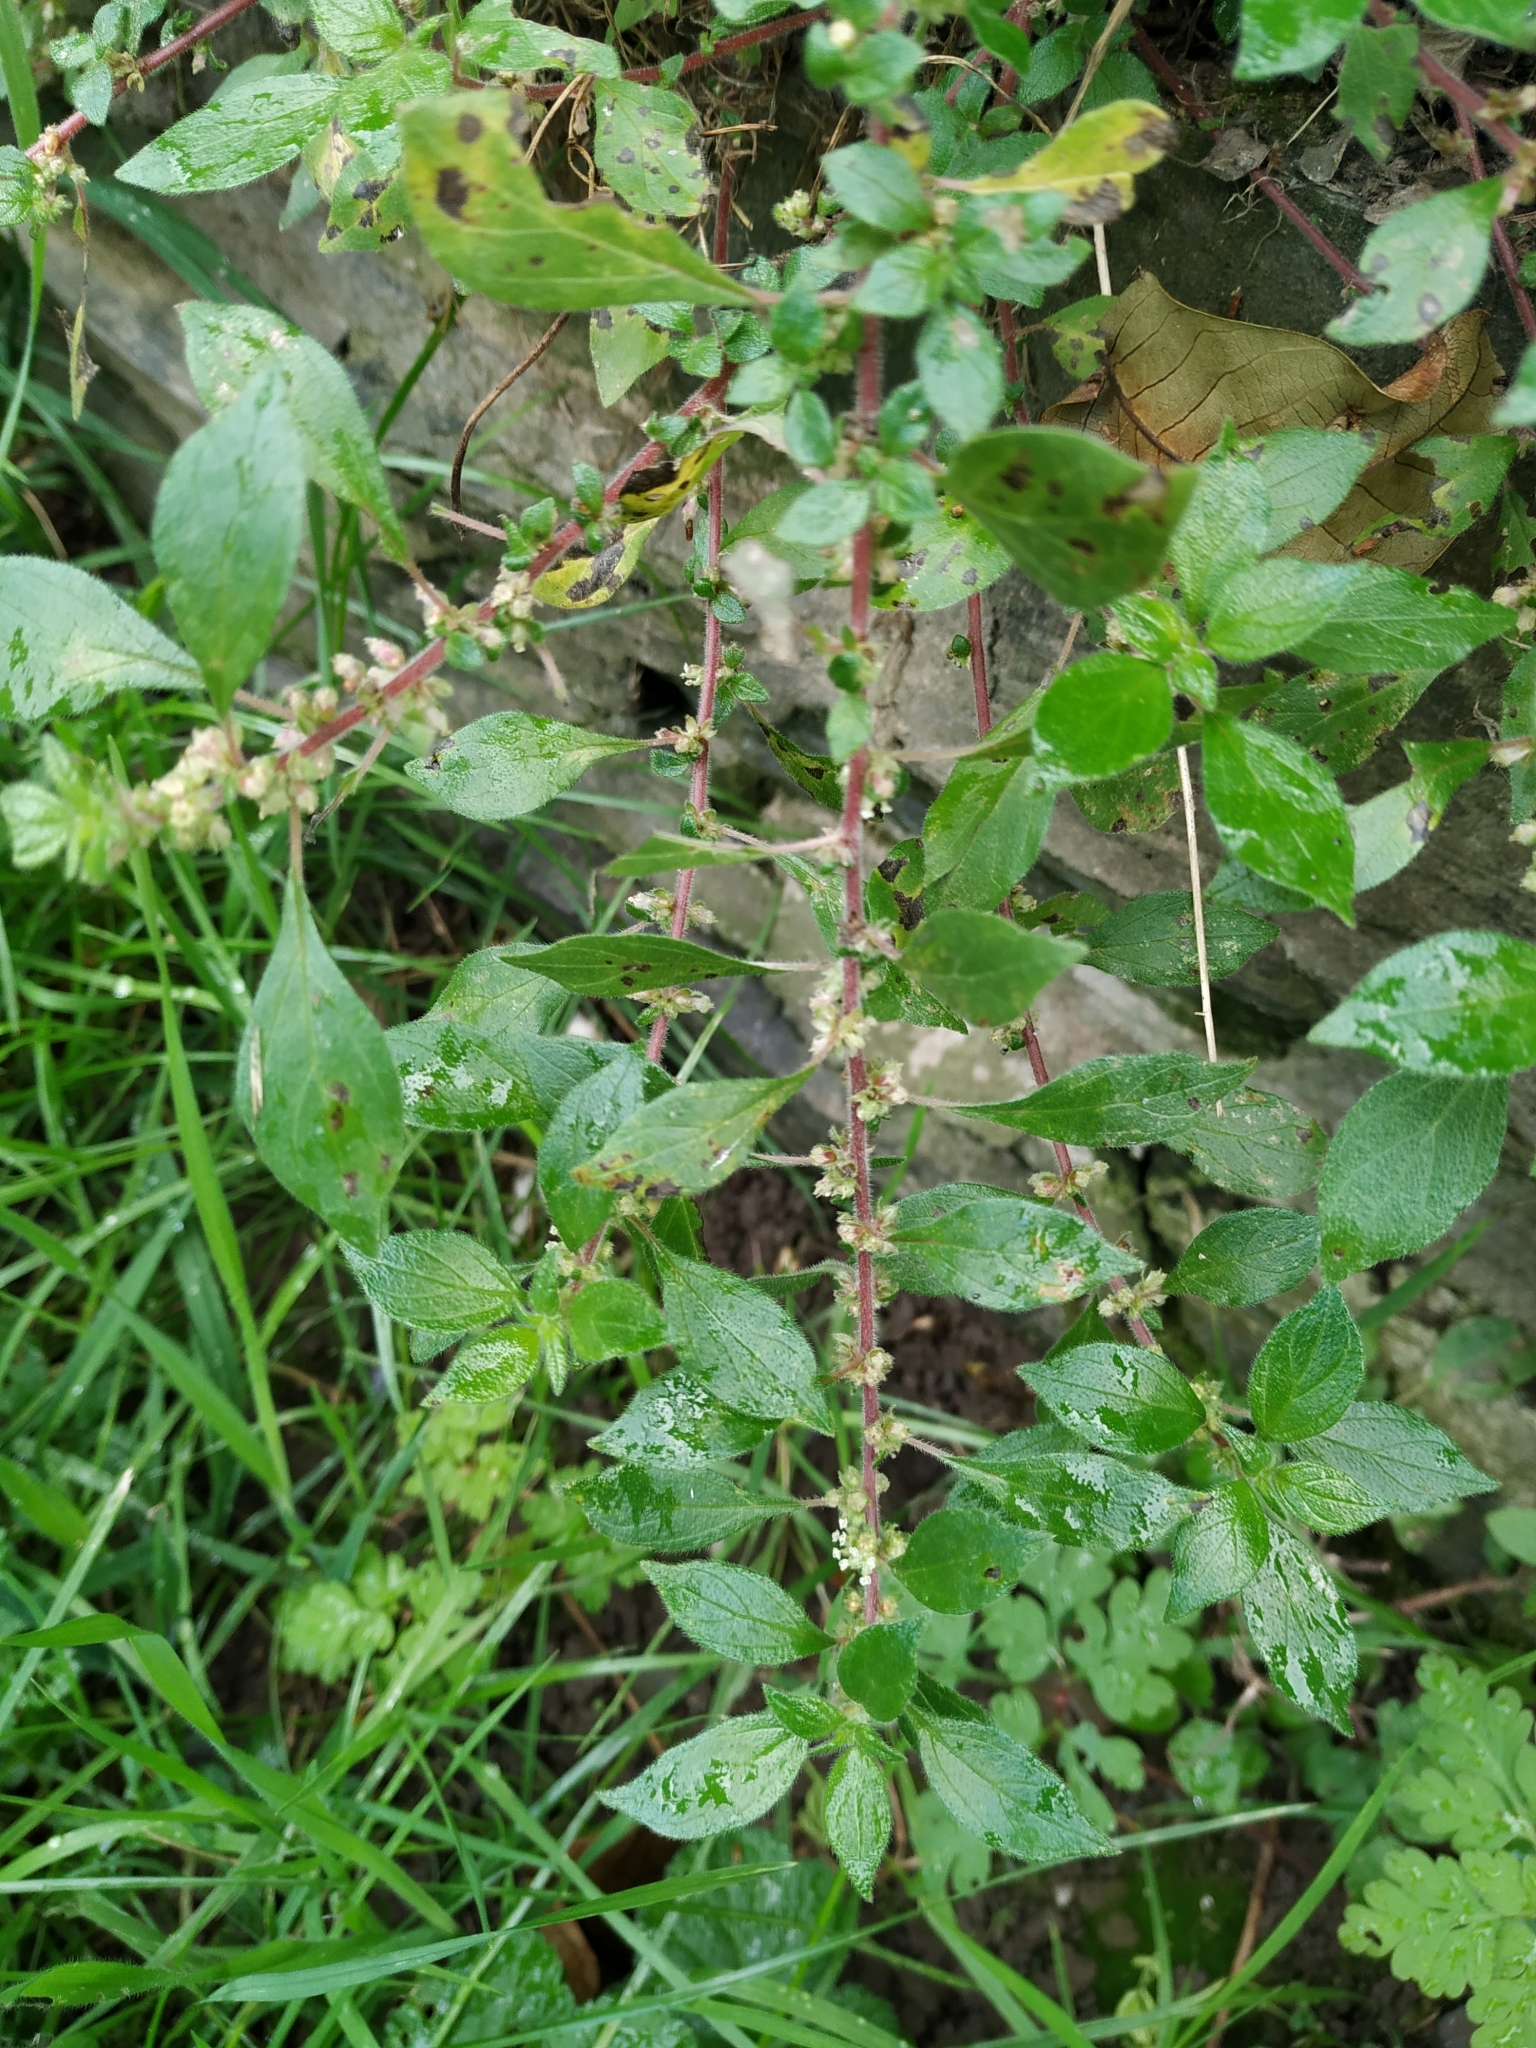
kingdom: Plantae
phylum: Tracheophyta
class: Magnoliopsida
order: Rosales
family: Urticaceae
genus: Parietaria
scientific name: Parietaria judaica
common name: Pellitory-of-the-wall
